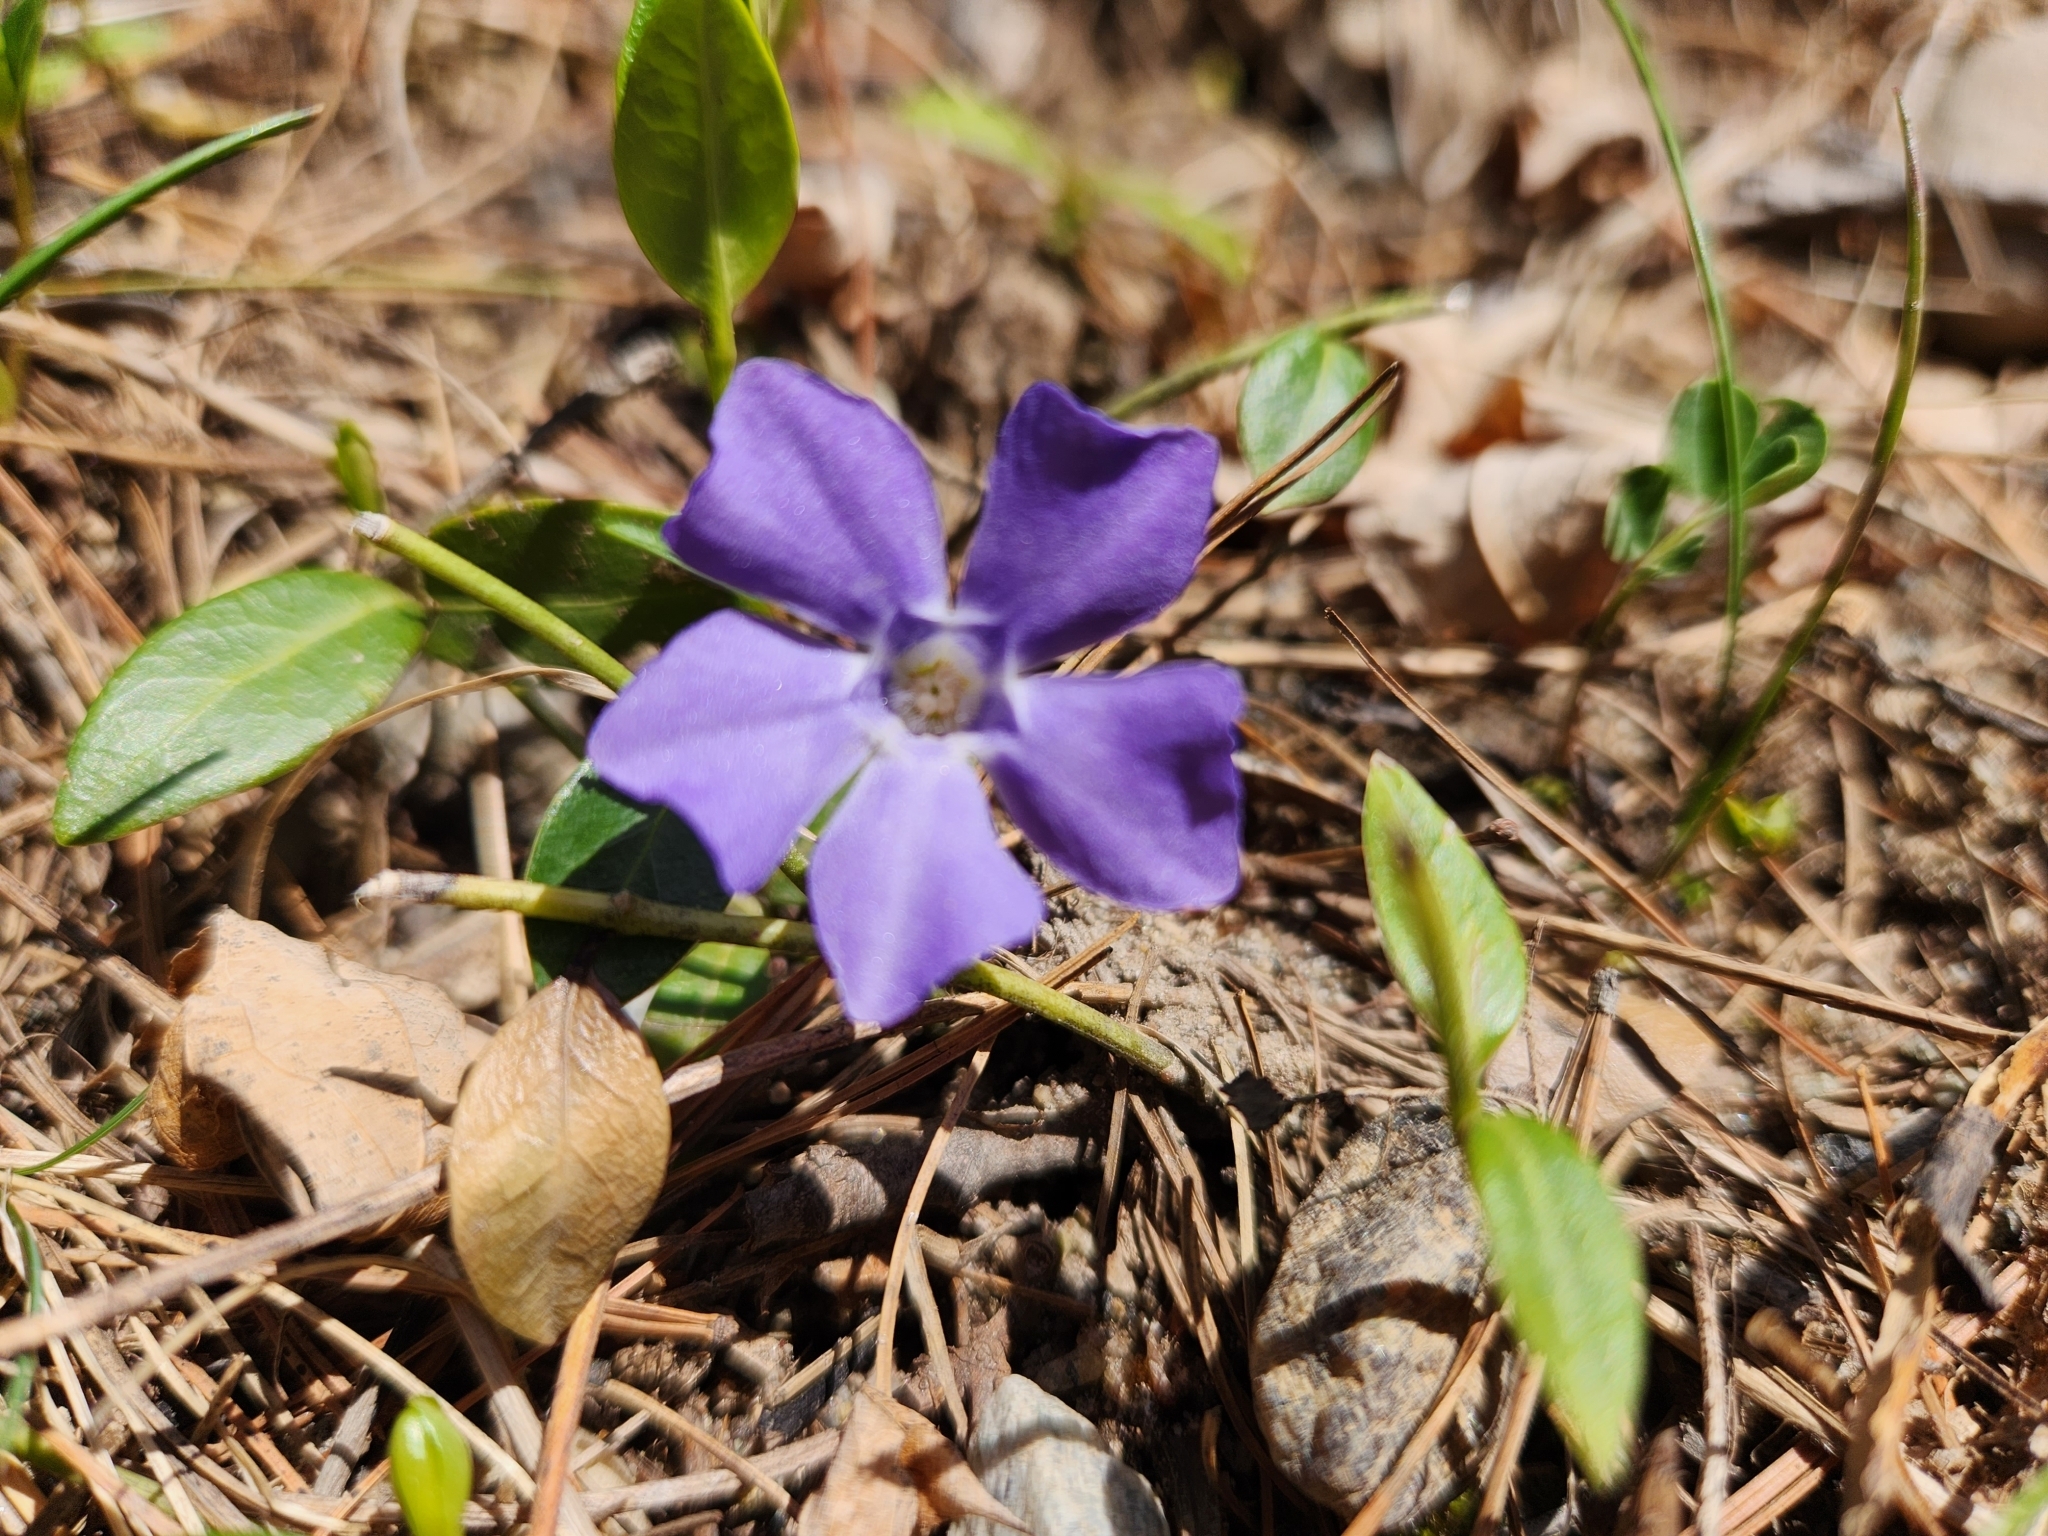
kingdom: Plantae
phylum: Tracheophyta
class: Magnoliopsida
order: Gentianales
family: Apocynaceae
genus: Vinca
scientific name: Vinca minor
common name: Lesser periwinkle
